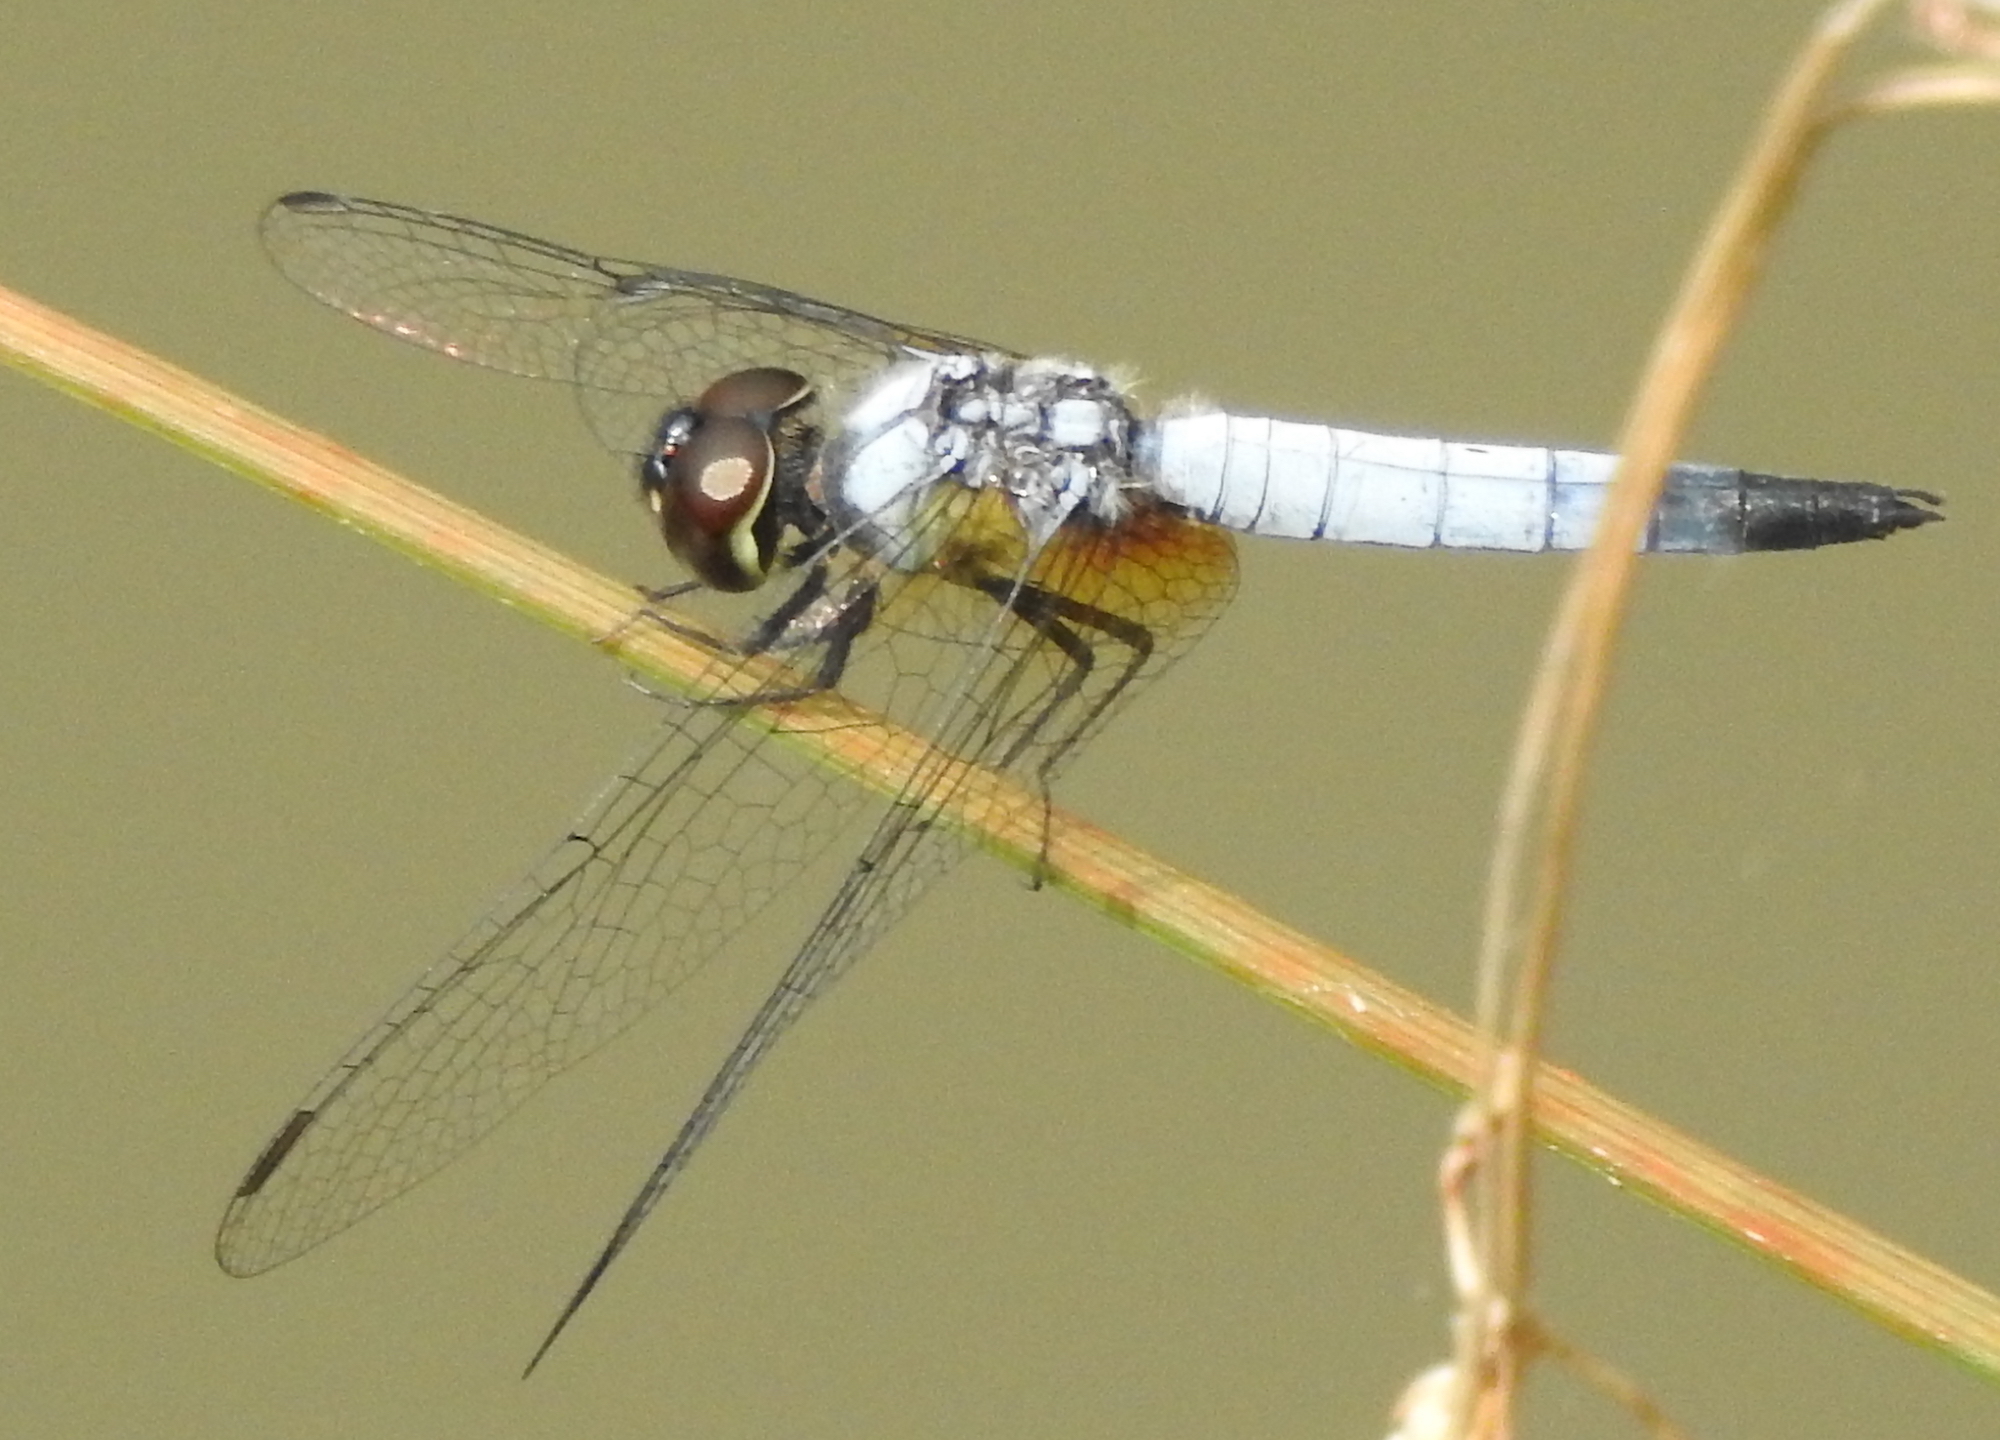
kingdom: Animalia
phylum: Arthropoda
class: Insecta
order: Odonata
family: Libellulidae
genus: Aethriamanta
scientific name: Aethriamanta gracilis
